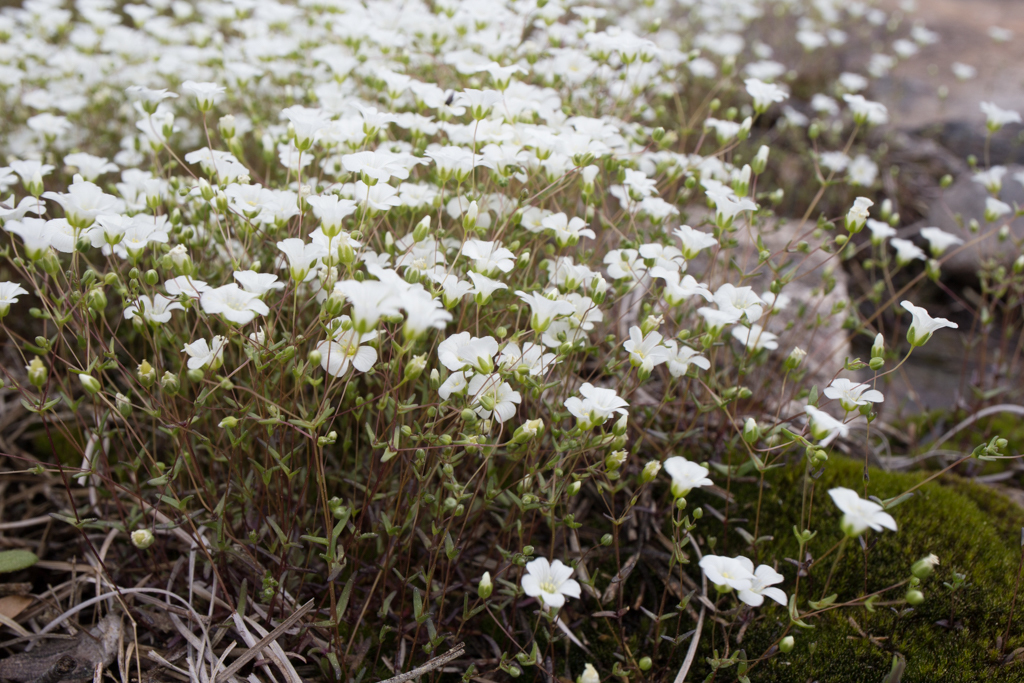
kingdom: Plantae
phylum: Tracheophyta
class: Magnoliopsida
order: Caryophyllales
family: Caryophyllaceae
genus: Geocarpon
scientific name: Geocarpon uniflorum
